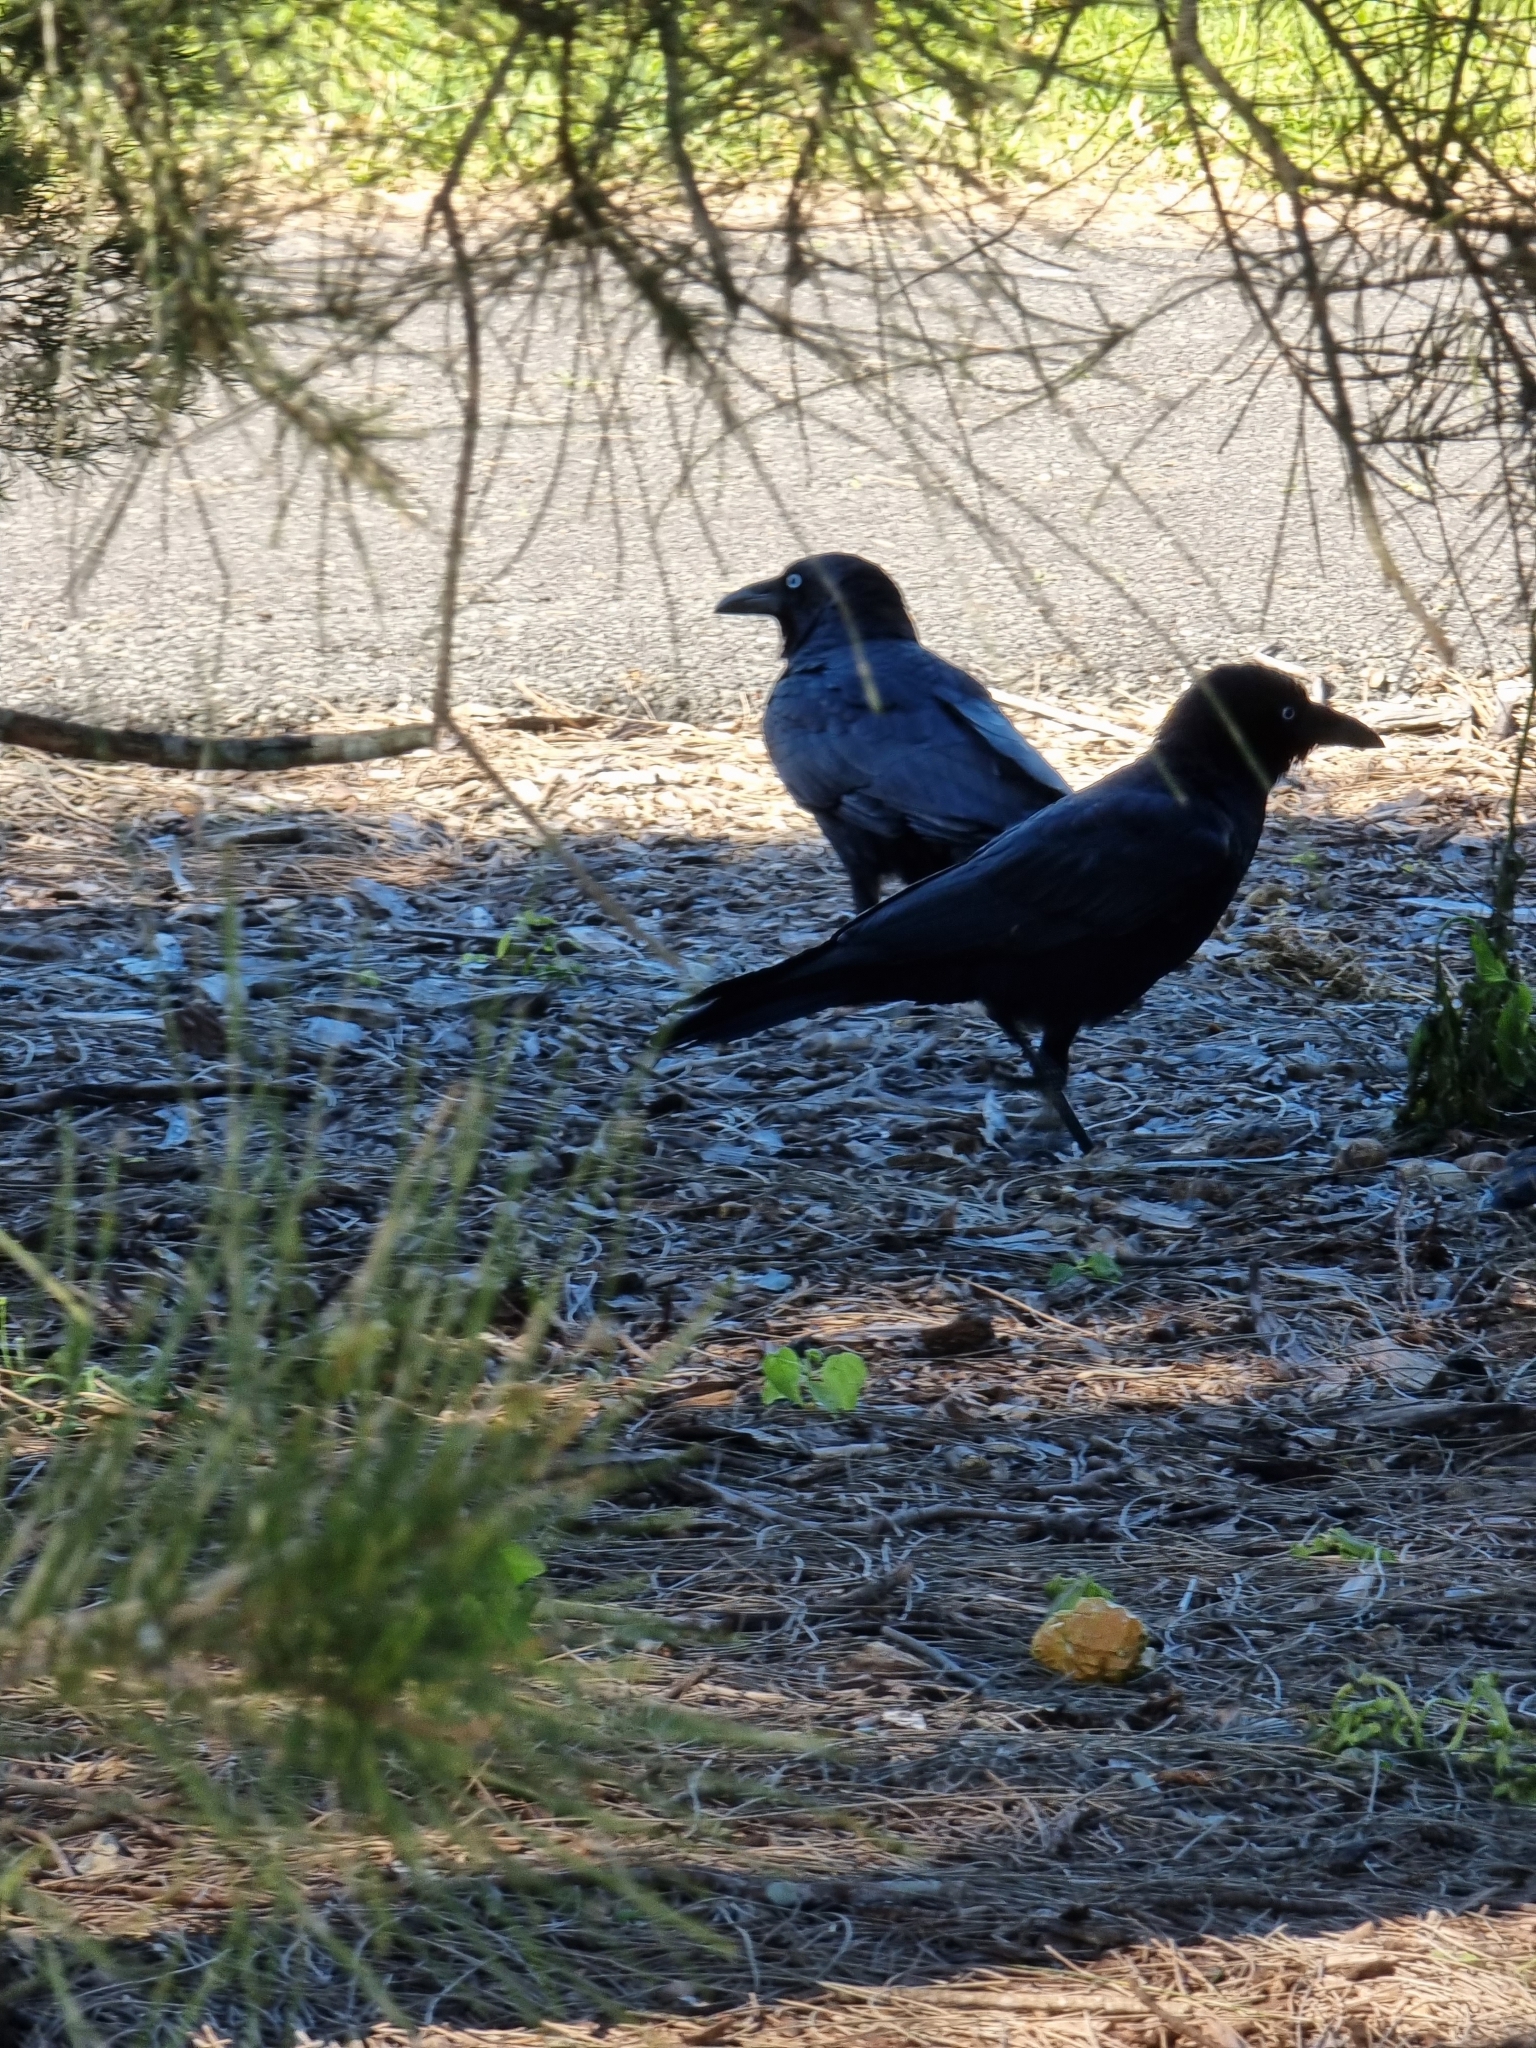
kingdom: Animalia
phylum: Chordata
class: Aves
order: Passeriformes
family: Corvidae
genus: Corvus
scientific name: Corvus orru
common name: Torresian crow
